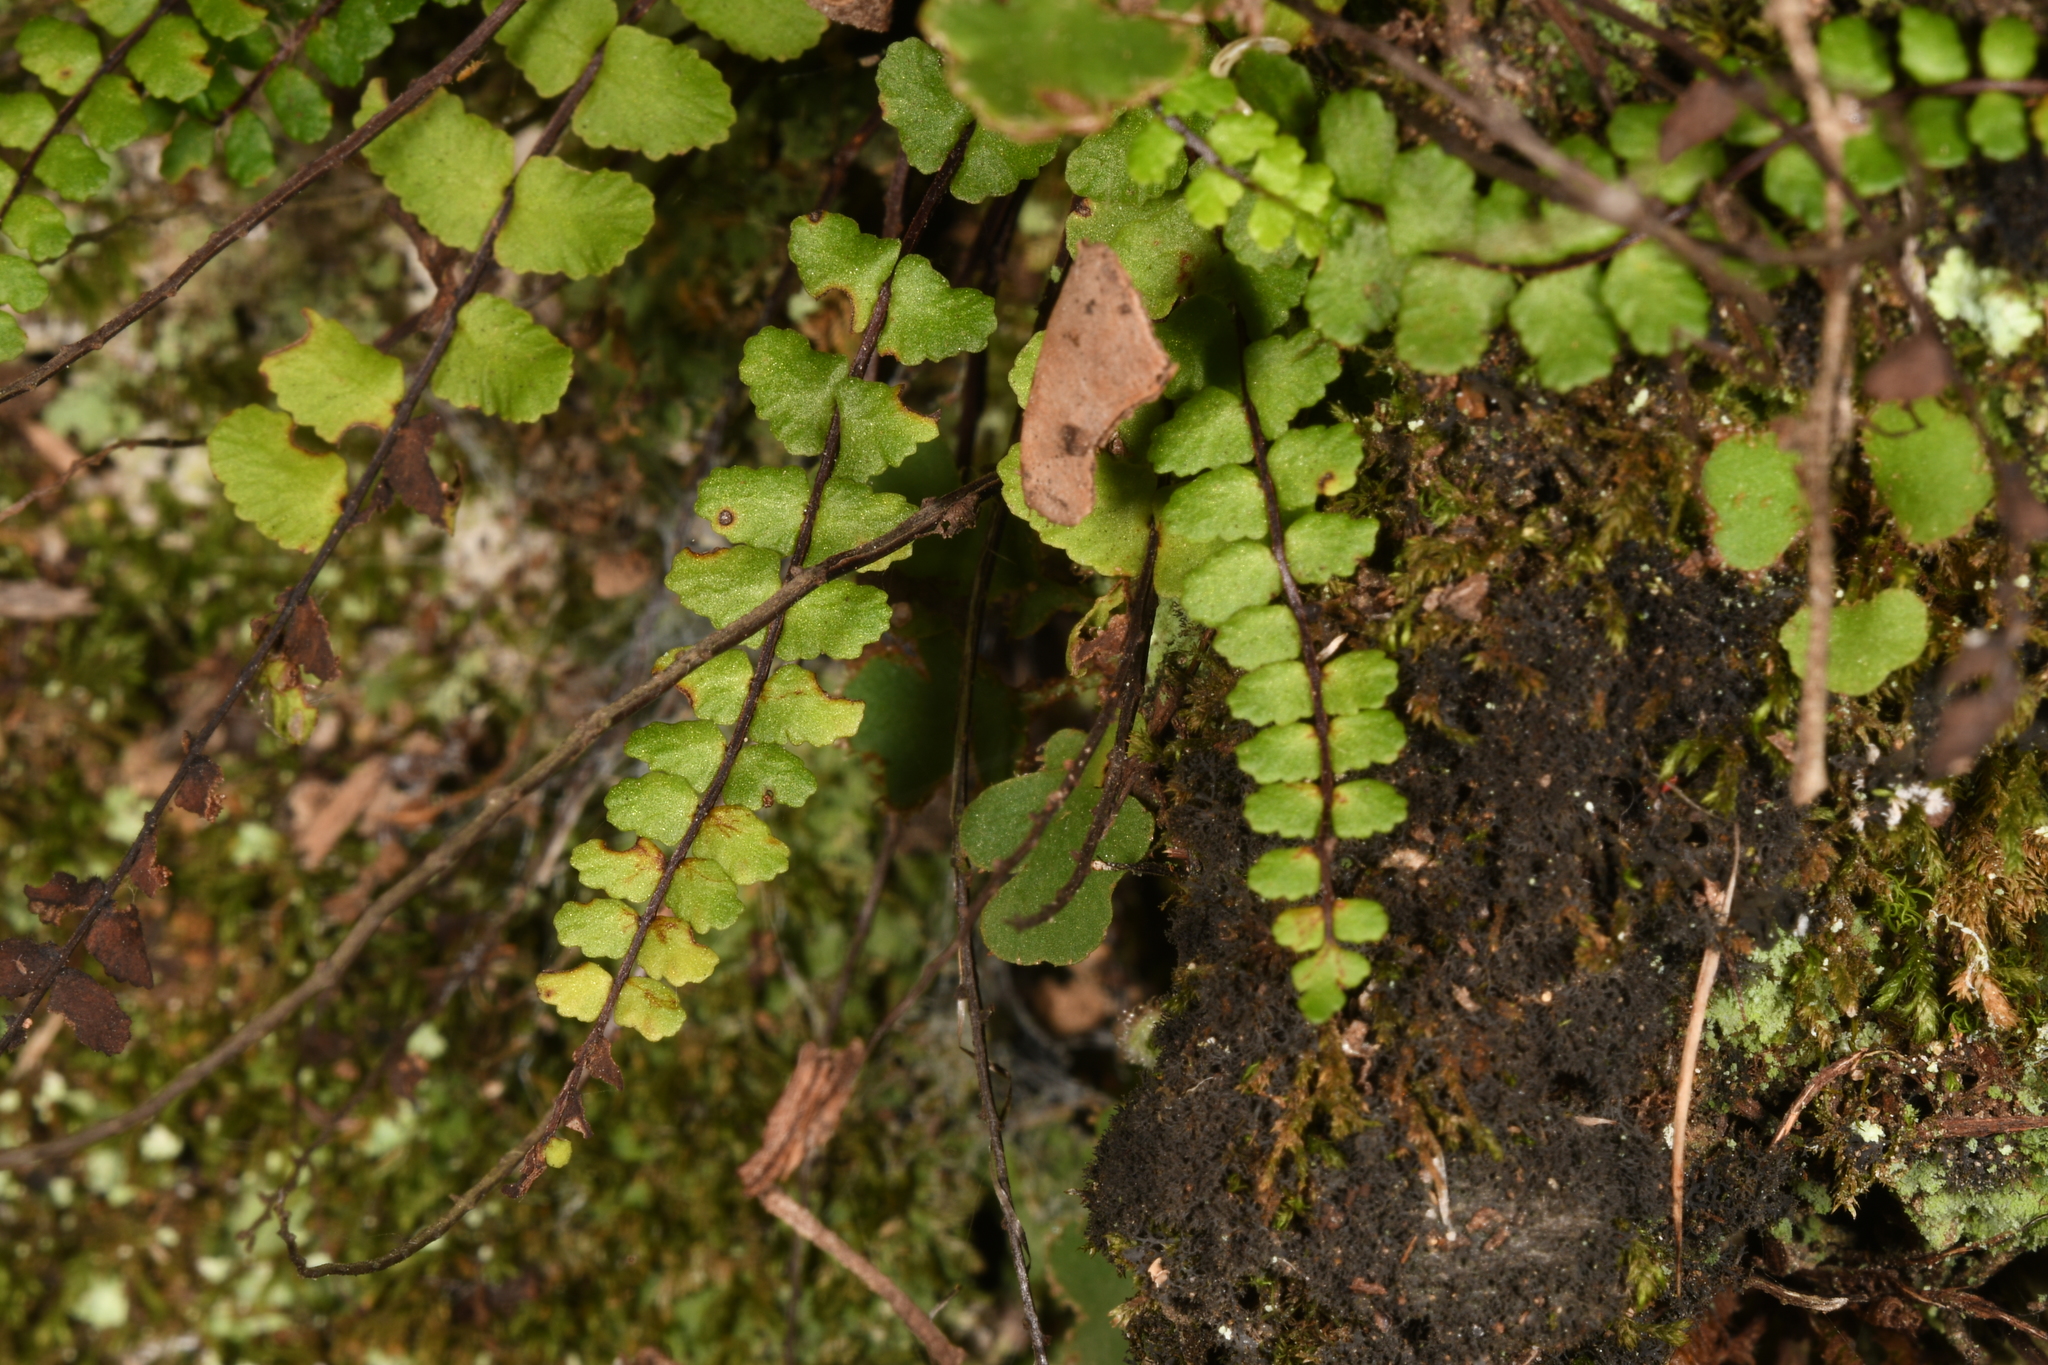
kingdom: Plantae
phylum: Tracheophyta
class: Polypodiopsida
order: Polypodiales
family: Aspleniaceae
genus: Asplenium
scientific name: Asplenium trichomanes
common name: Maidenhair spleenwort
